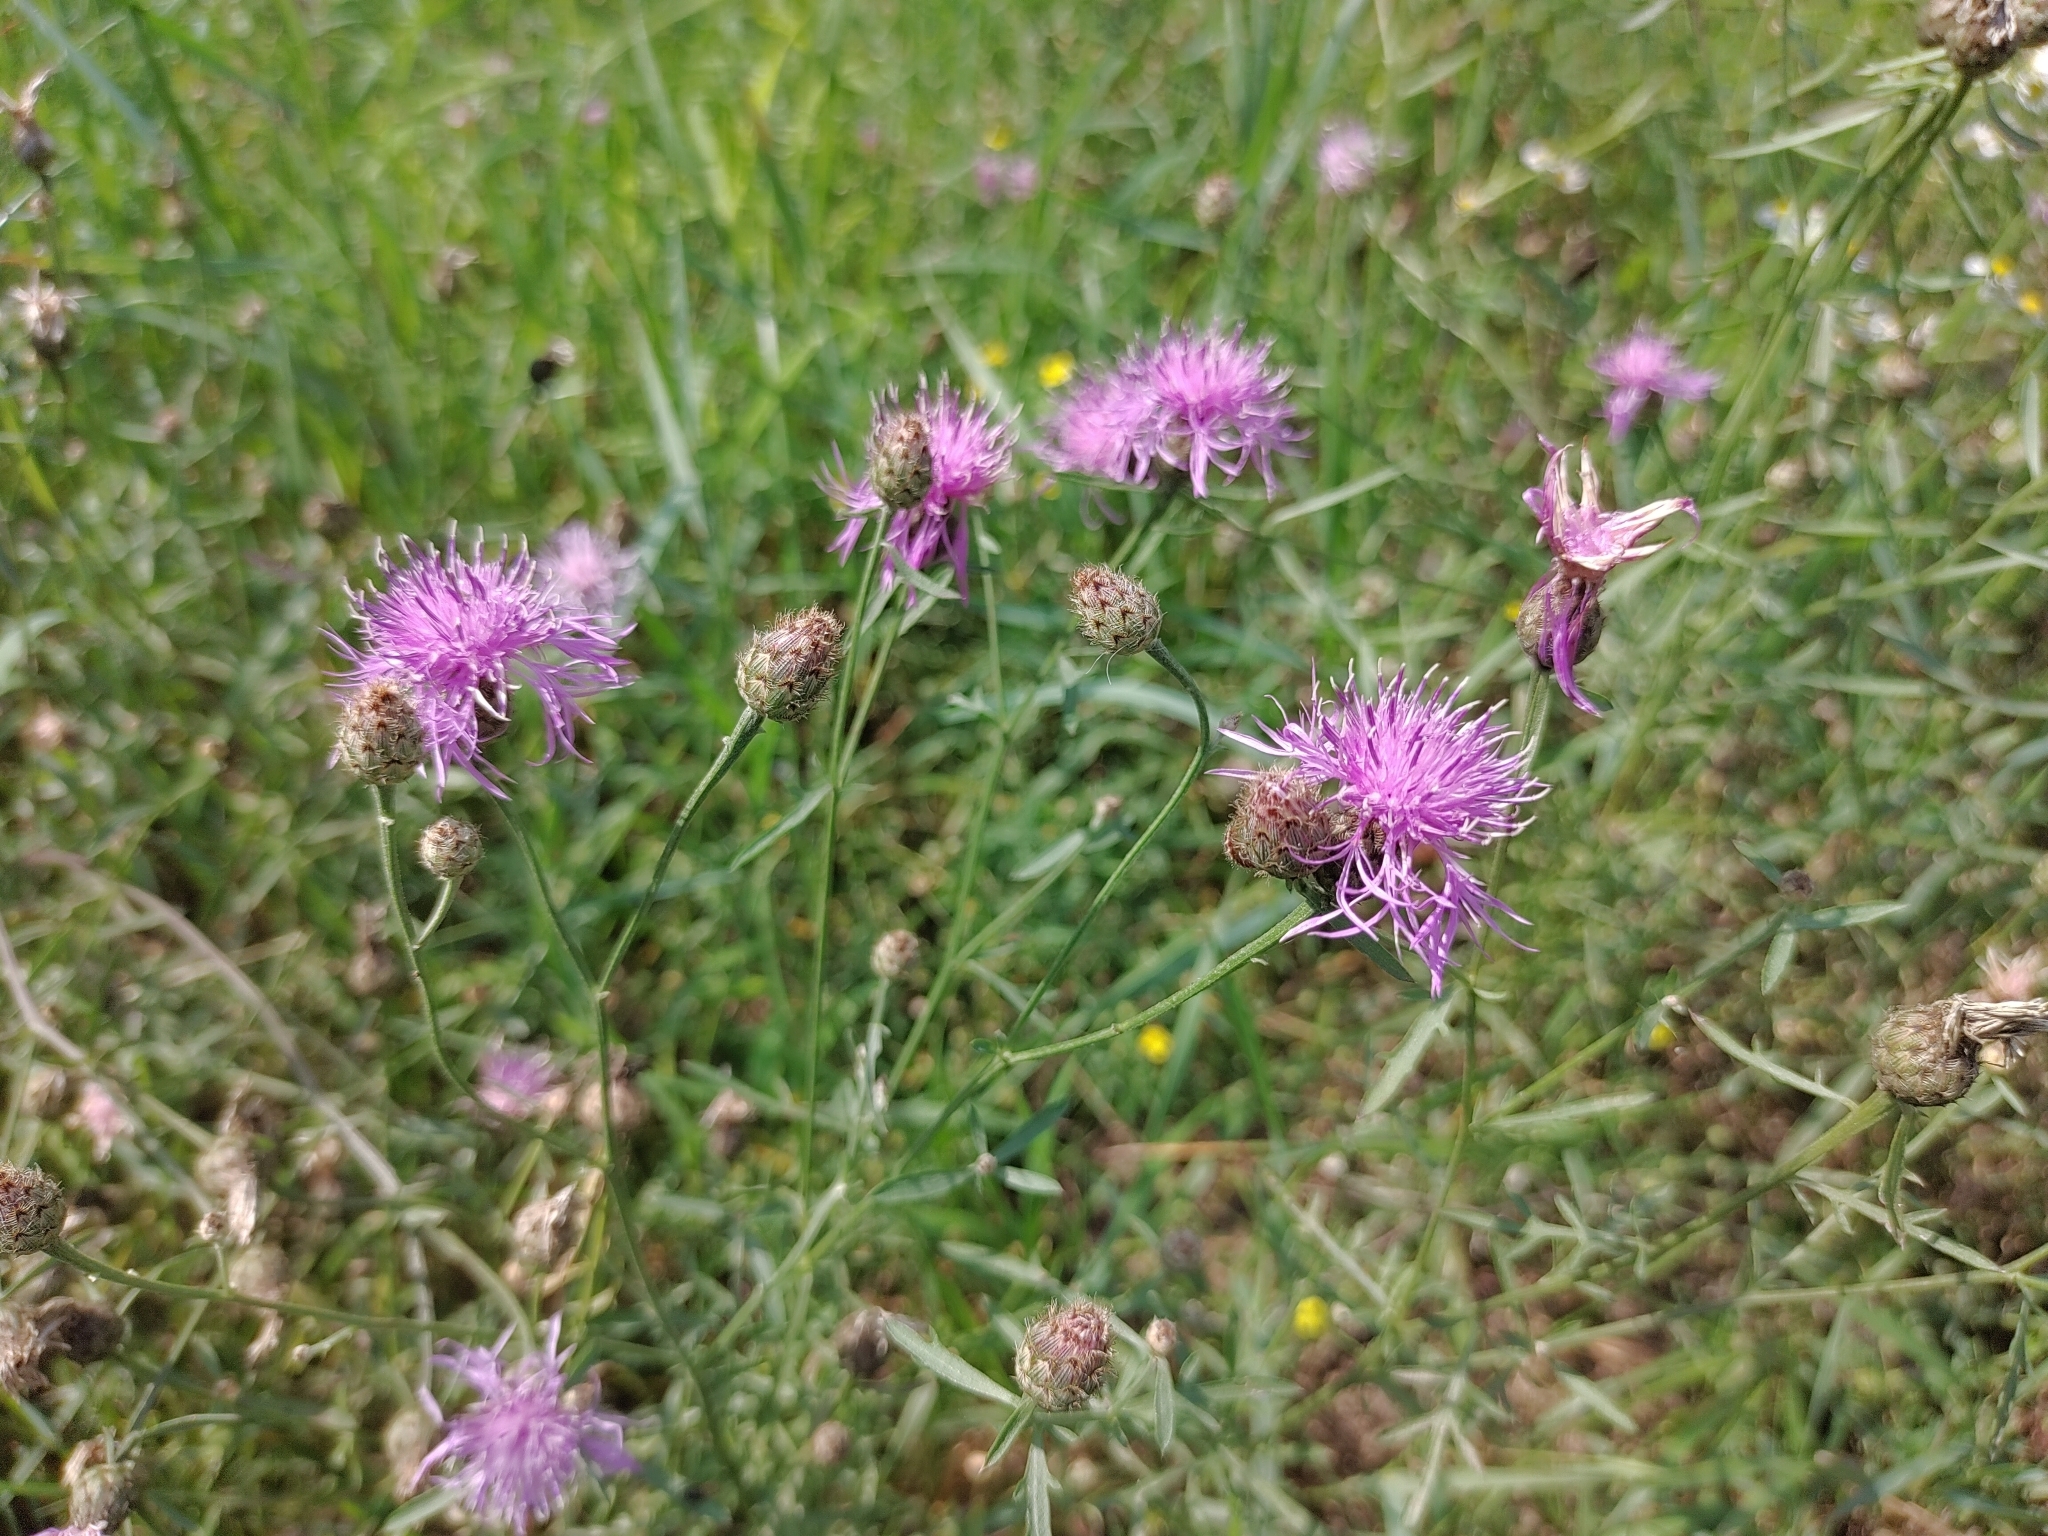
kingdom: Plantae
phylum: Tracheophyta
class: Magnoliopsida
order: Asterales
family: Asteraceae
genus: Centaurea
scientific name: Centaurea stoebe
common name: Spotted knapweed
